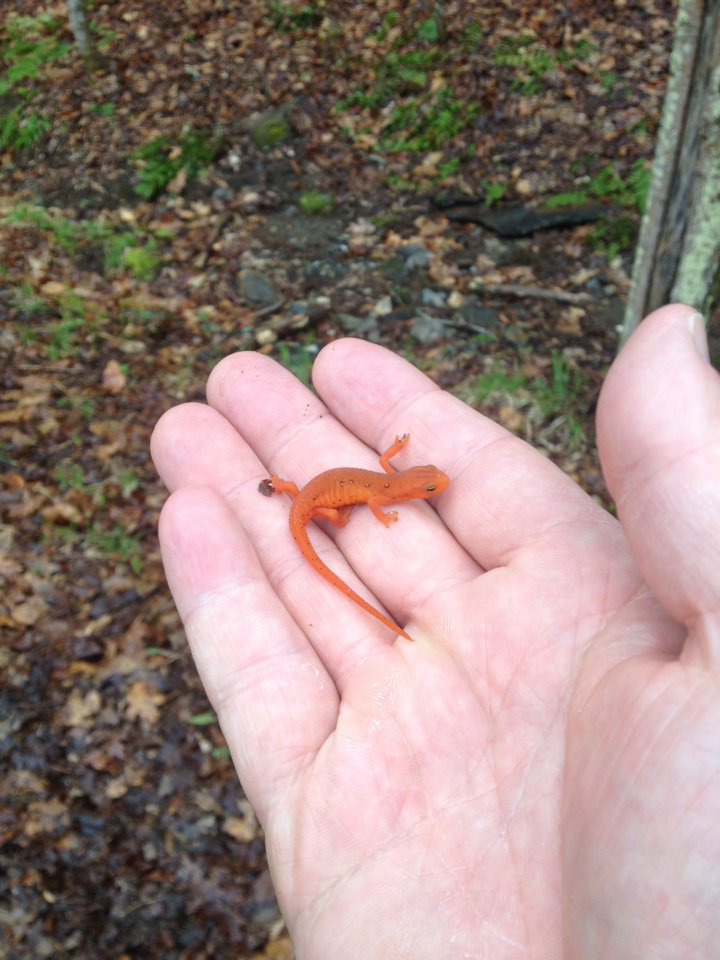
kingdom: Animalia
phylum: Chordata
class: Amphibia
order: Caudata
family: Salamandridae
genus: Notophthalmus
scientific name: Notophthalmus viridescens
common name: Eastern newt
